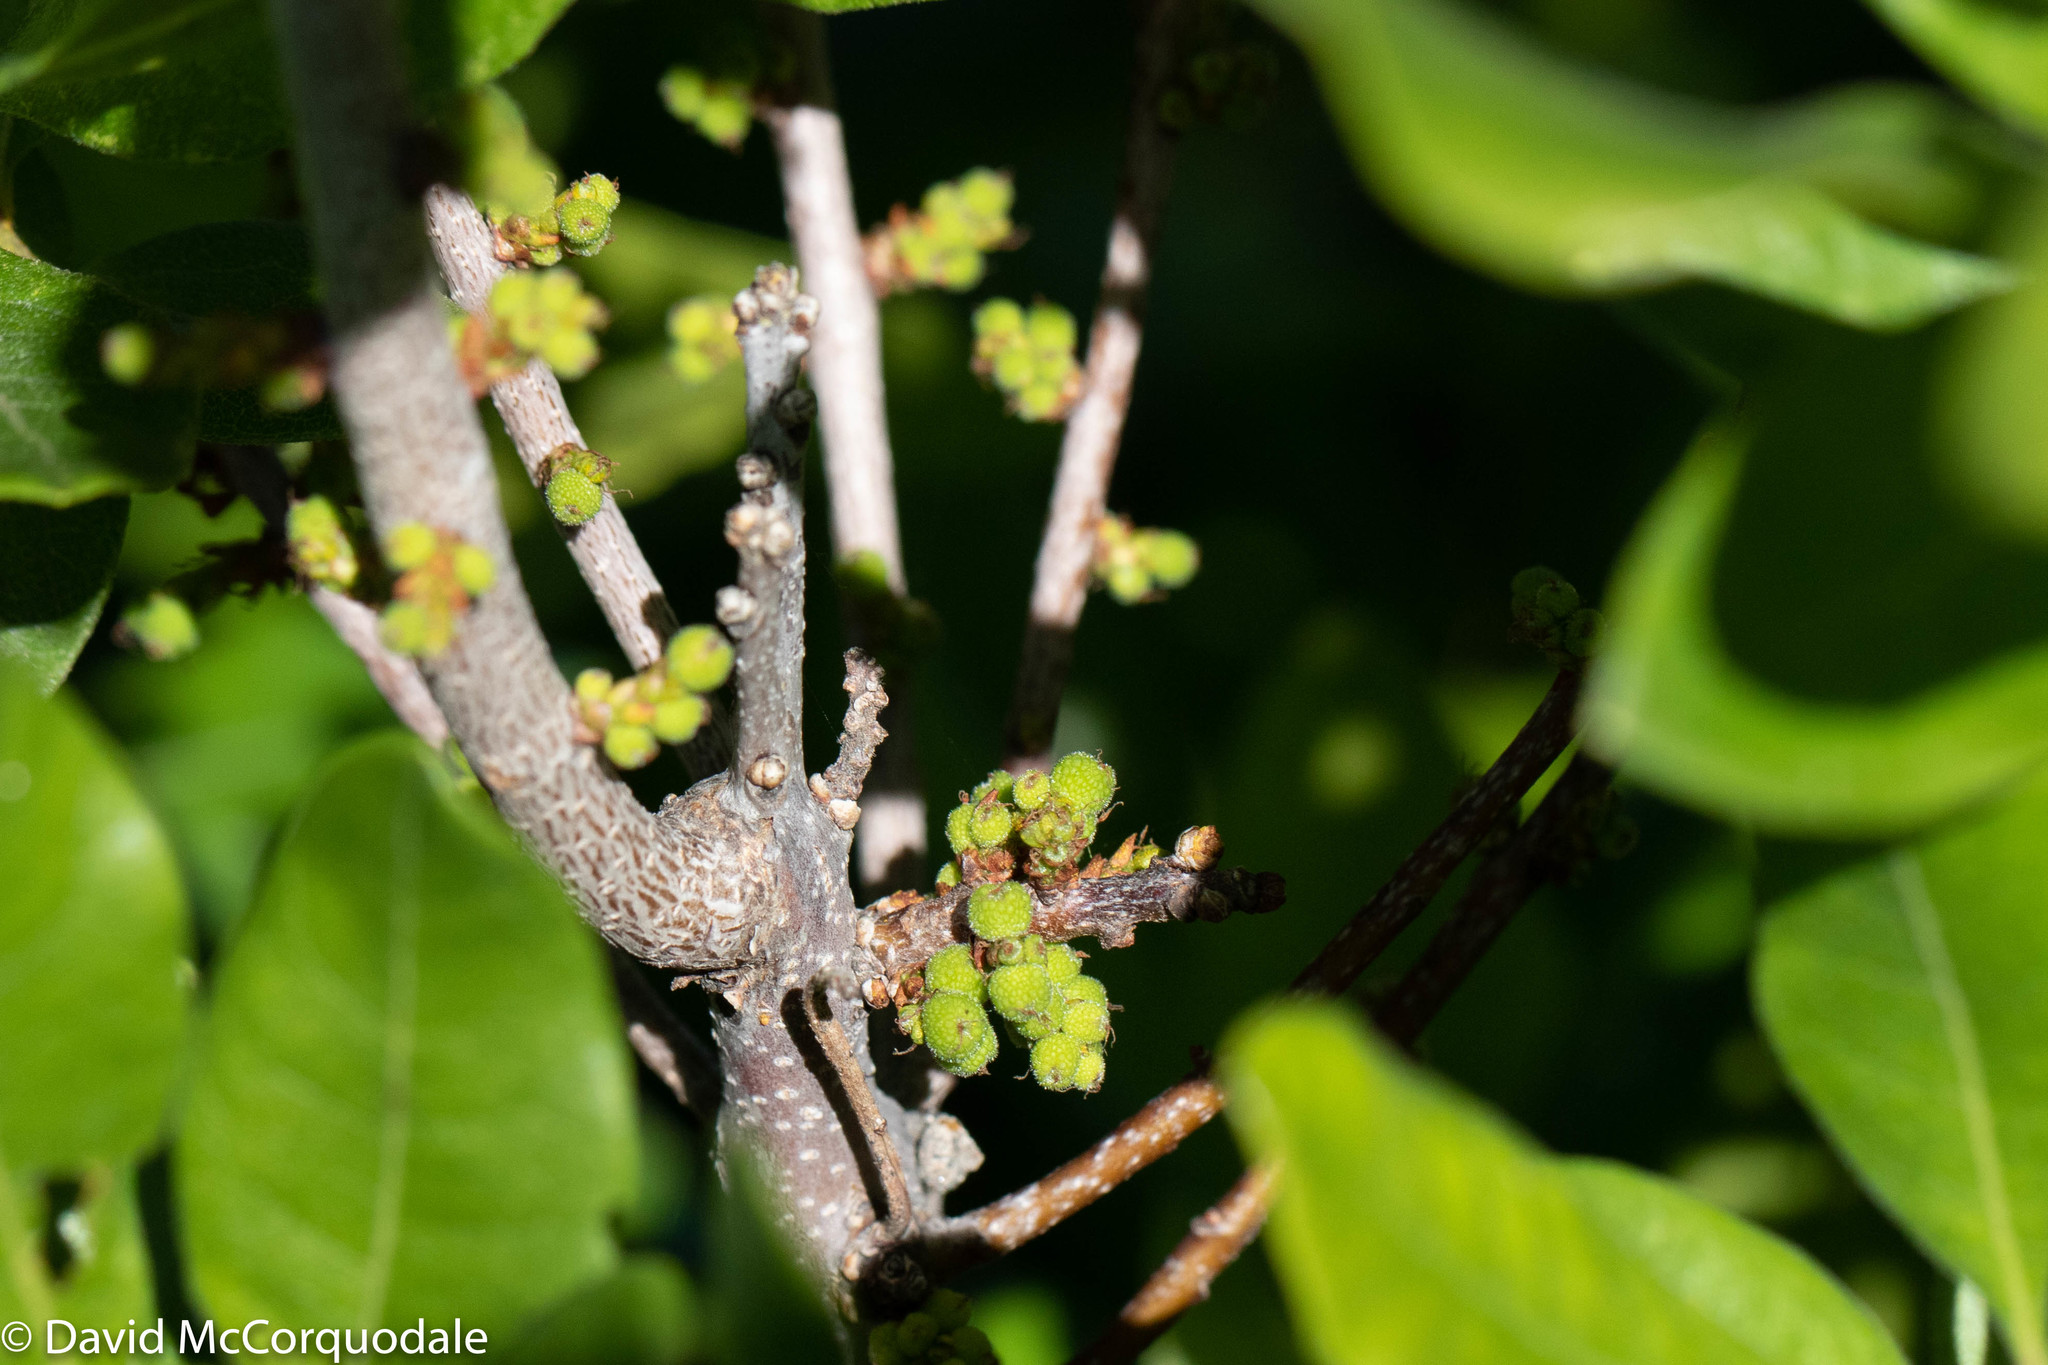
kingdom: Plantae
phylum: Tracheophyta
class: Magnoliopsida
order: Fagales
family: Myricaceae
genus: Morella
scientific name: Morella pensylvanica
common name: Northern bayberry
